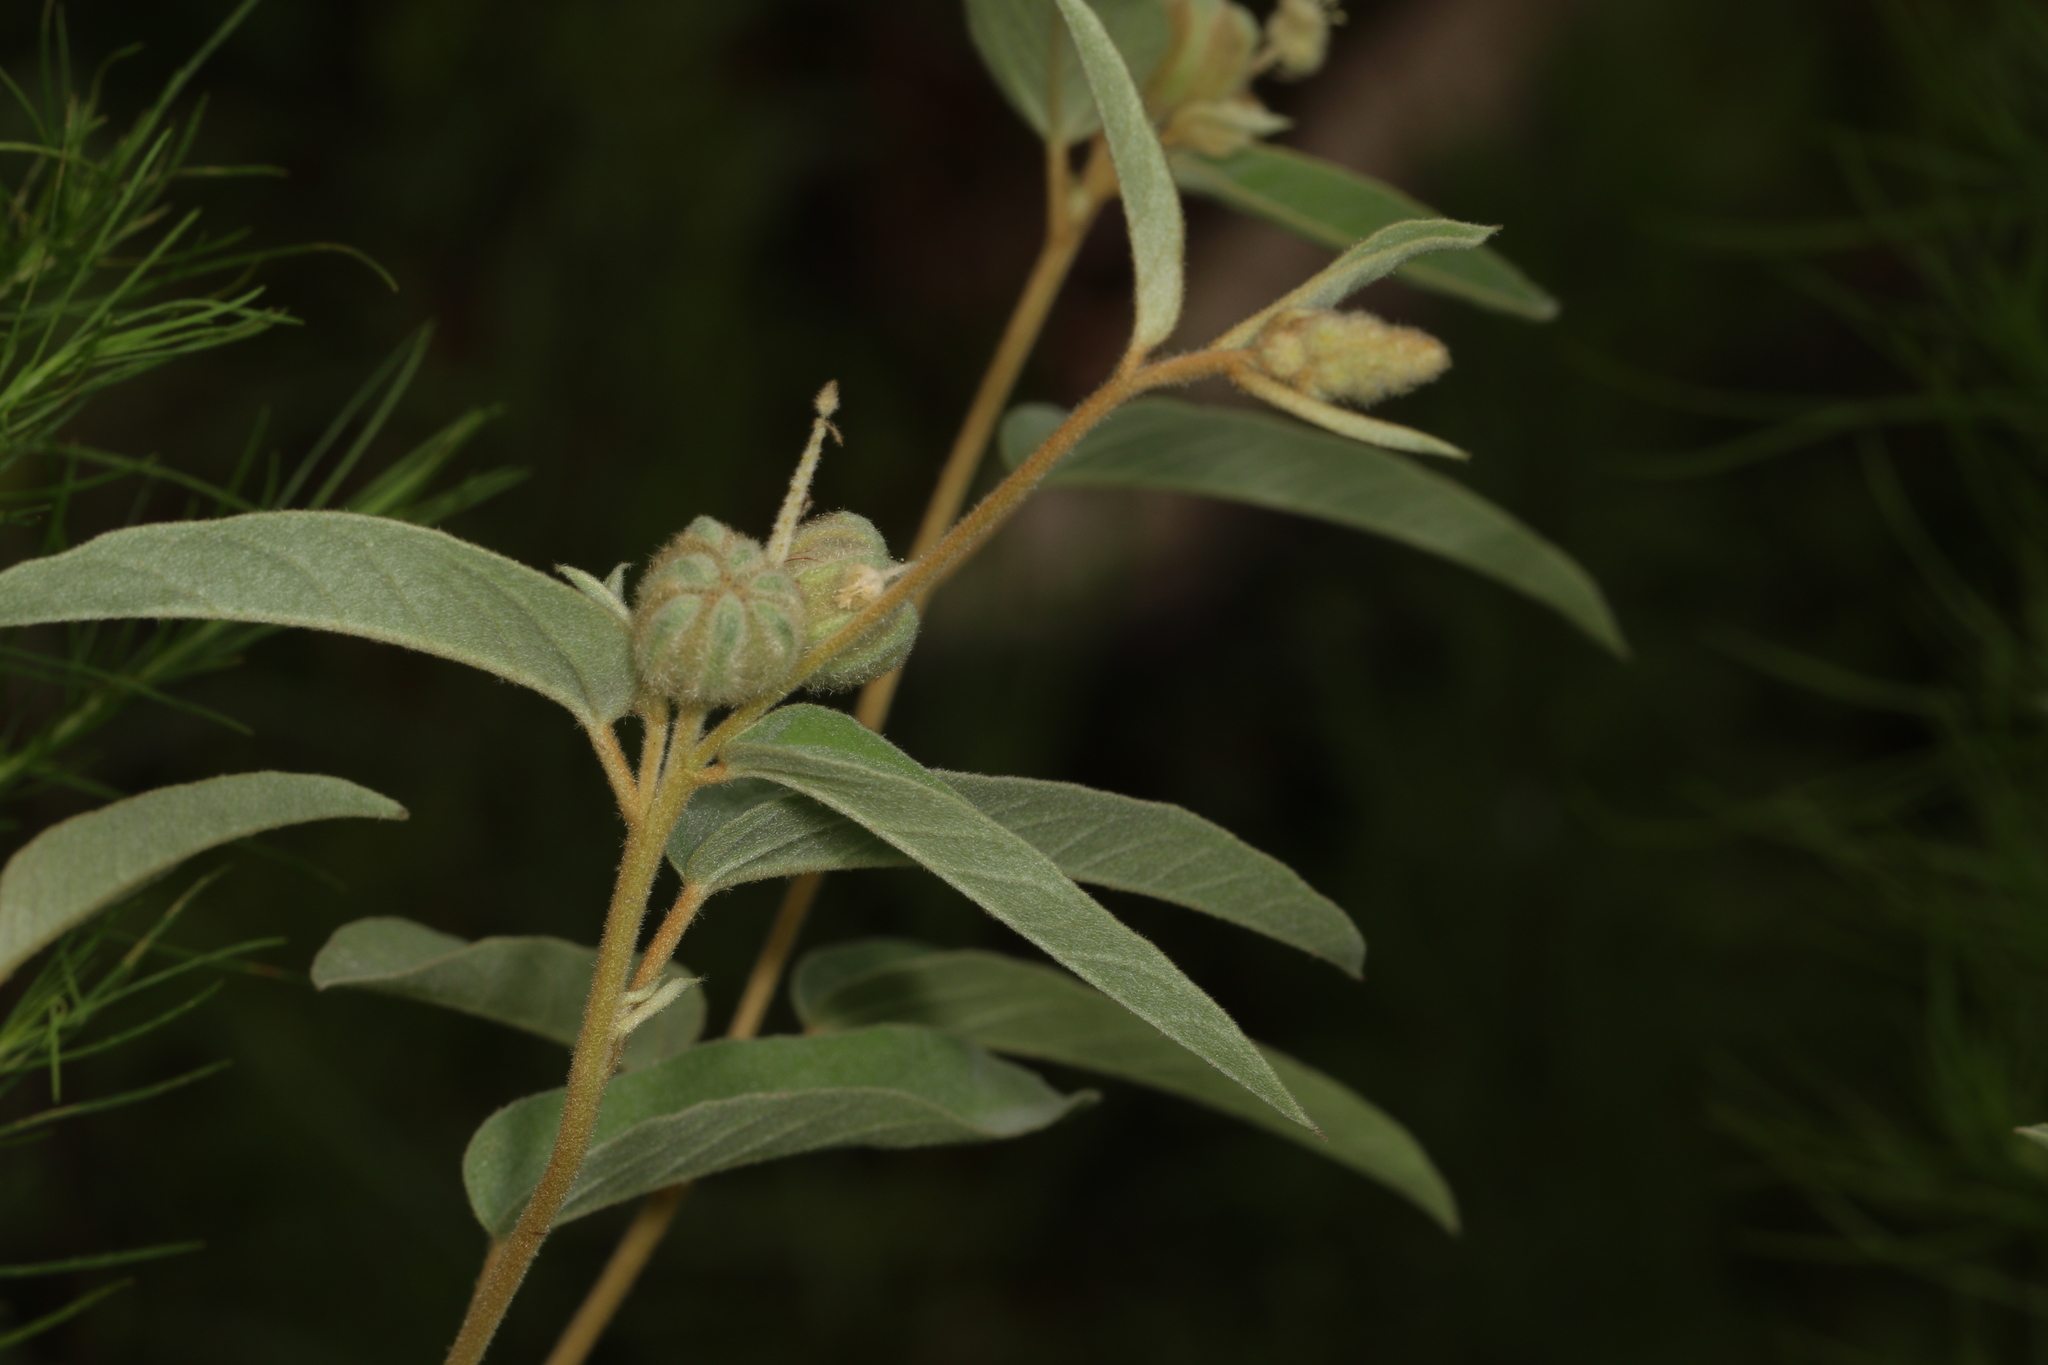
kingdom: Plantae
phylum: Tracheophyta
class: Magnoliopsida
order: Malpighiales
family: Euphorbiaceae
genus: Croton
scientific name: Croton lindheimeri
